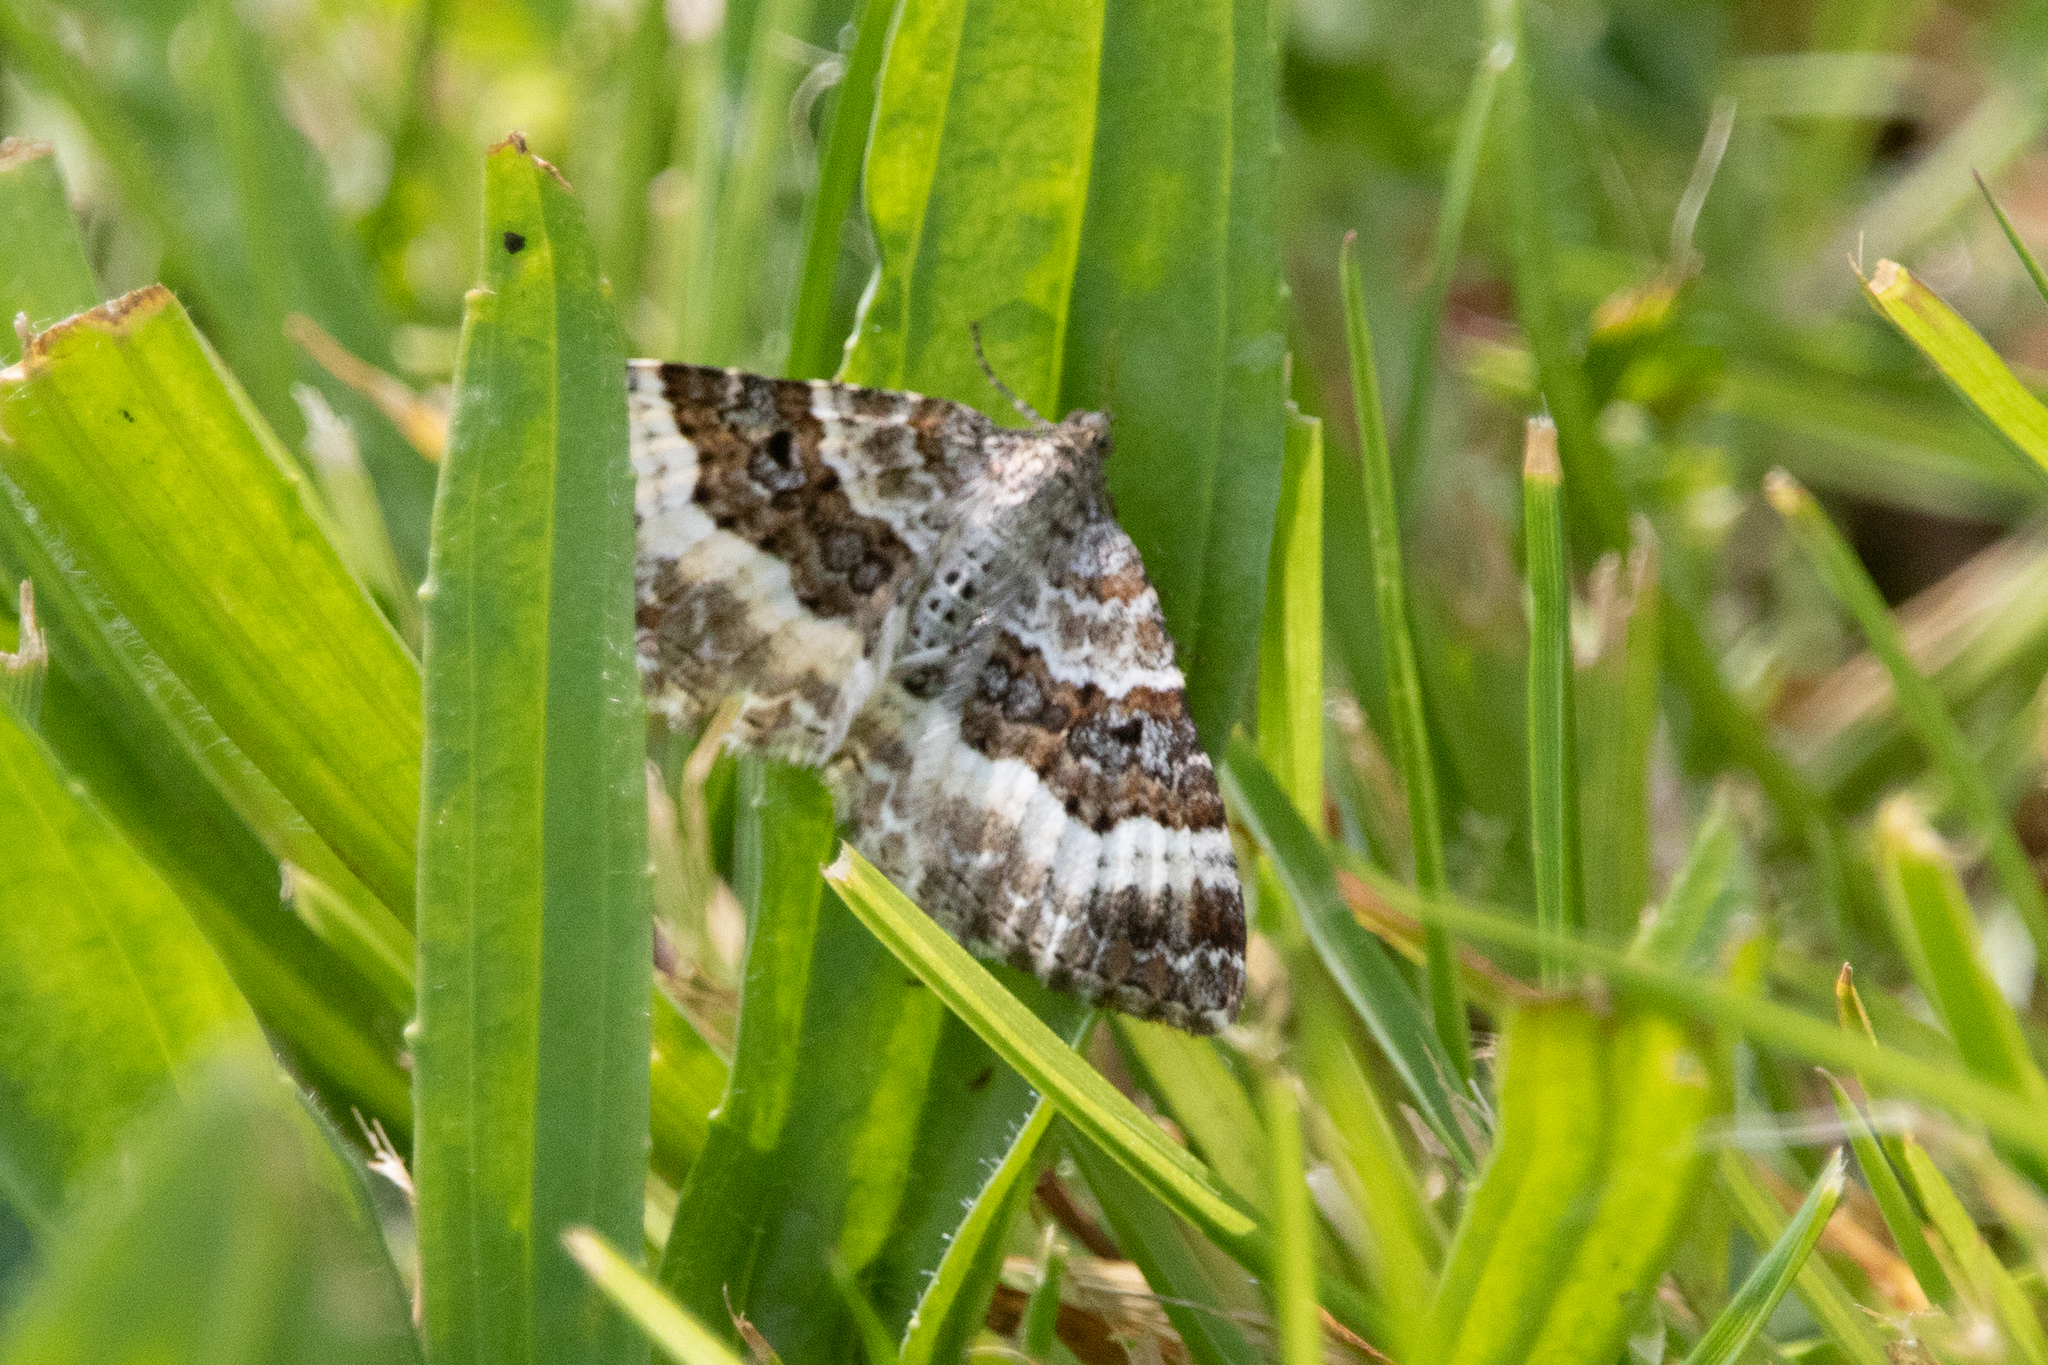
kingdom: Animalia
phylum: Arthropoda
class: Insecta
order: Lepidoptera
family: Geometridae
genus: Epirrhoe
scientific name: Epirrhoe alternata
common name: Common carpet
